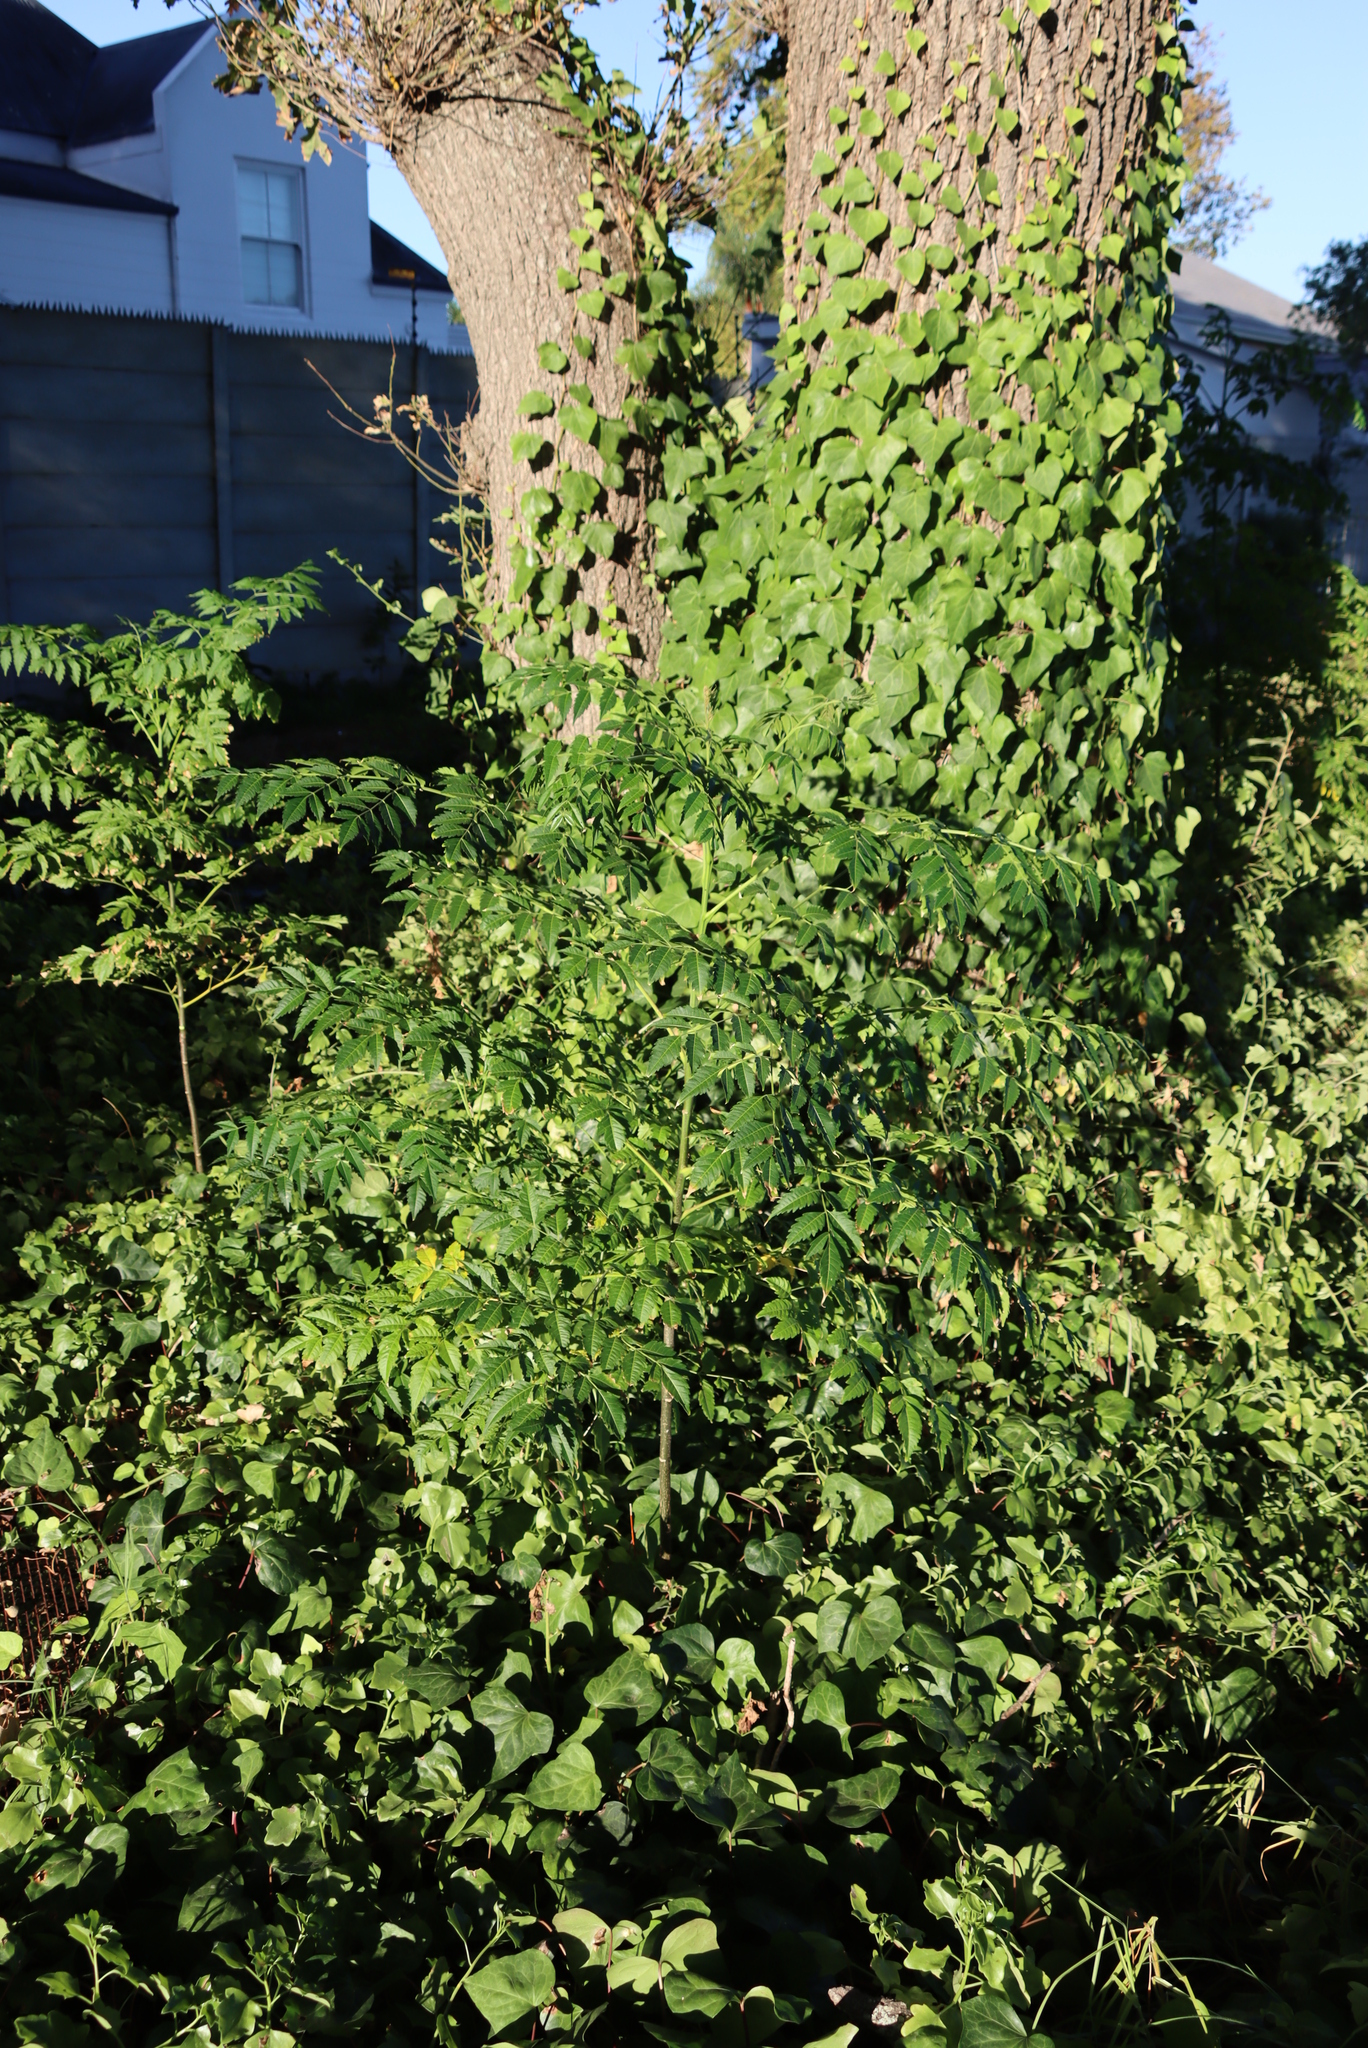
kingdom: Plantae
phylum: Tracheophyta
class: Magnoliopsida
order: Sapindales
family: Meliaceae
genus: Melia
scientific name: Melia azedarach
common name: Chinaberrytree
